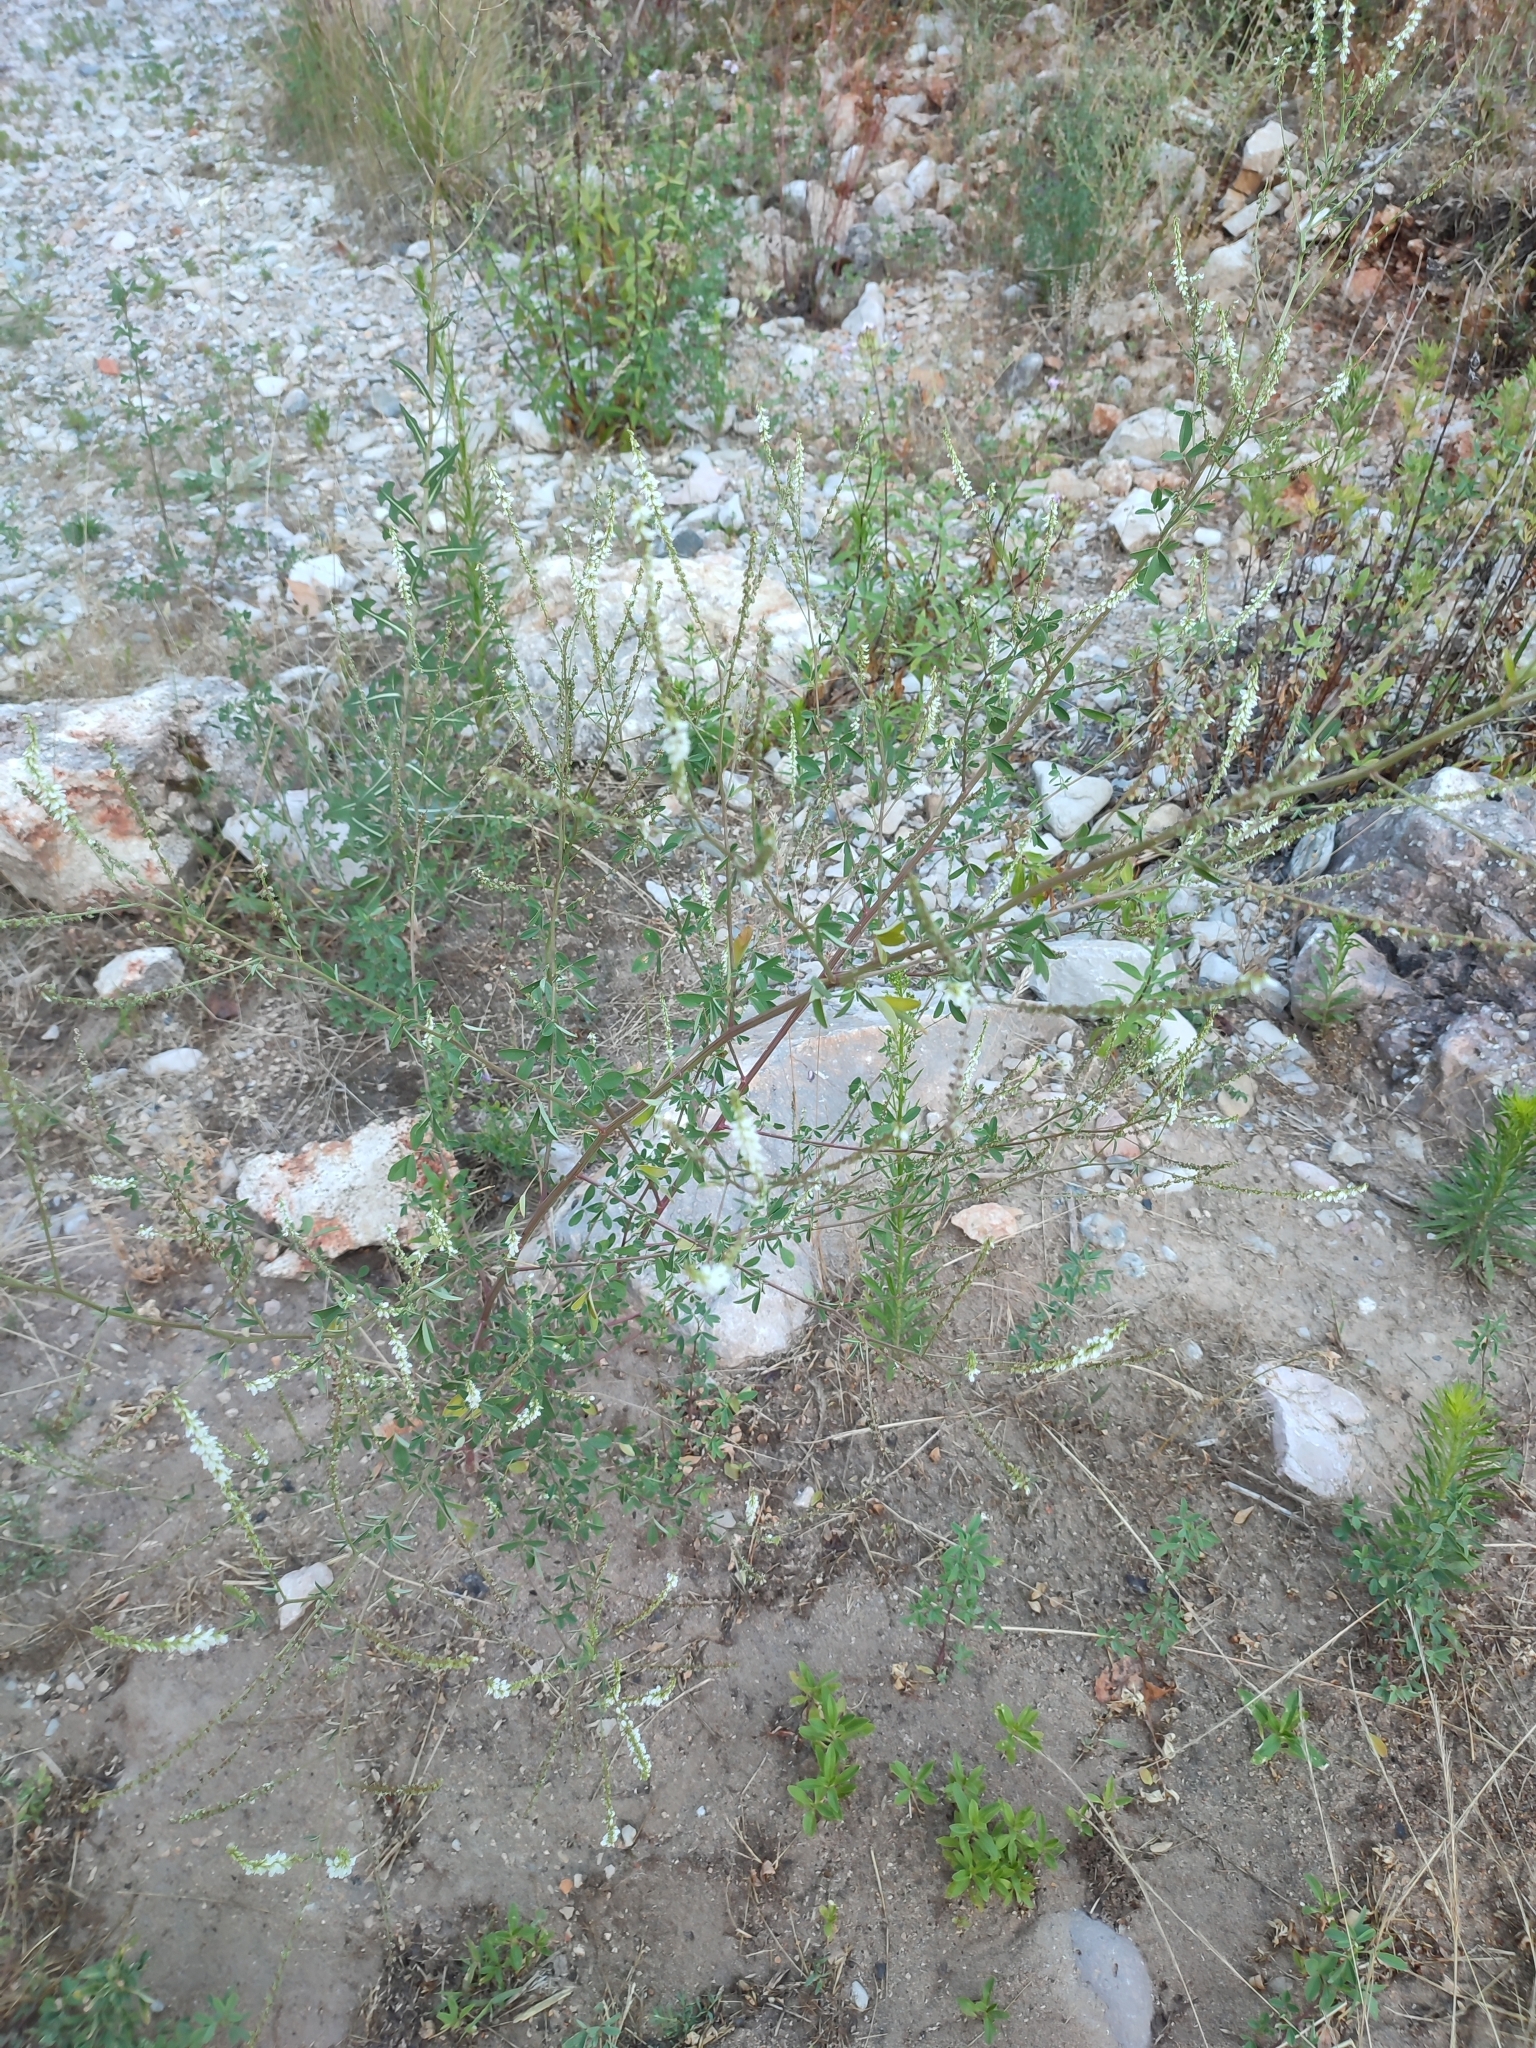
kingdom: Plantae
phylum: Tracheophyta
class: Magnoliopsida
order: Fabales
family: Fabaceae
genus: Melilotus
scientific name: Melilotus albus
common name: White melilot
